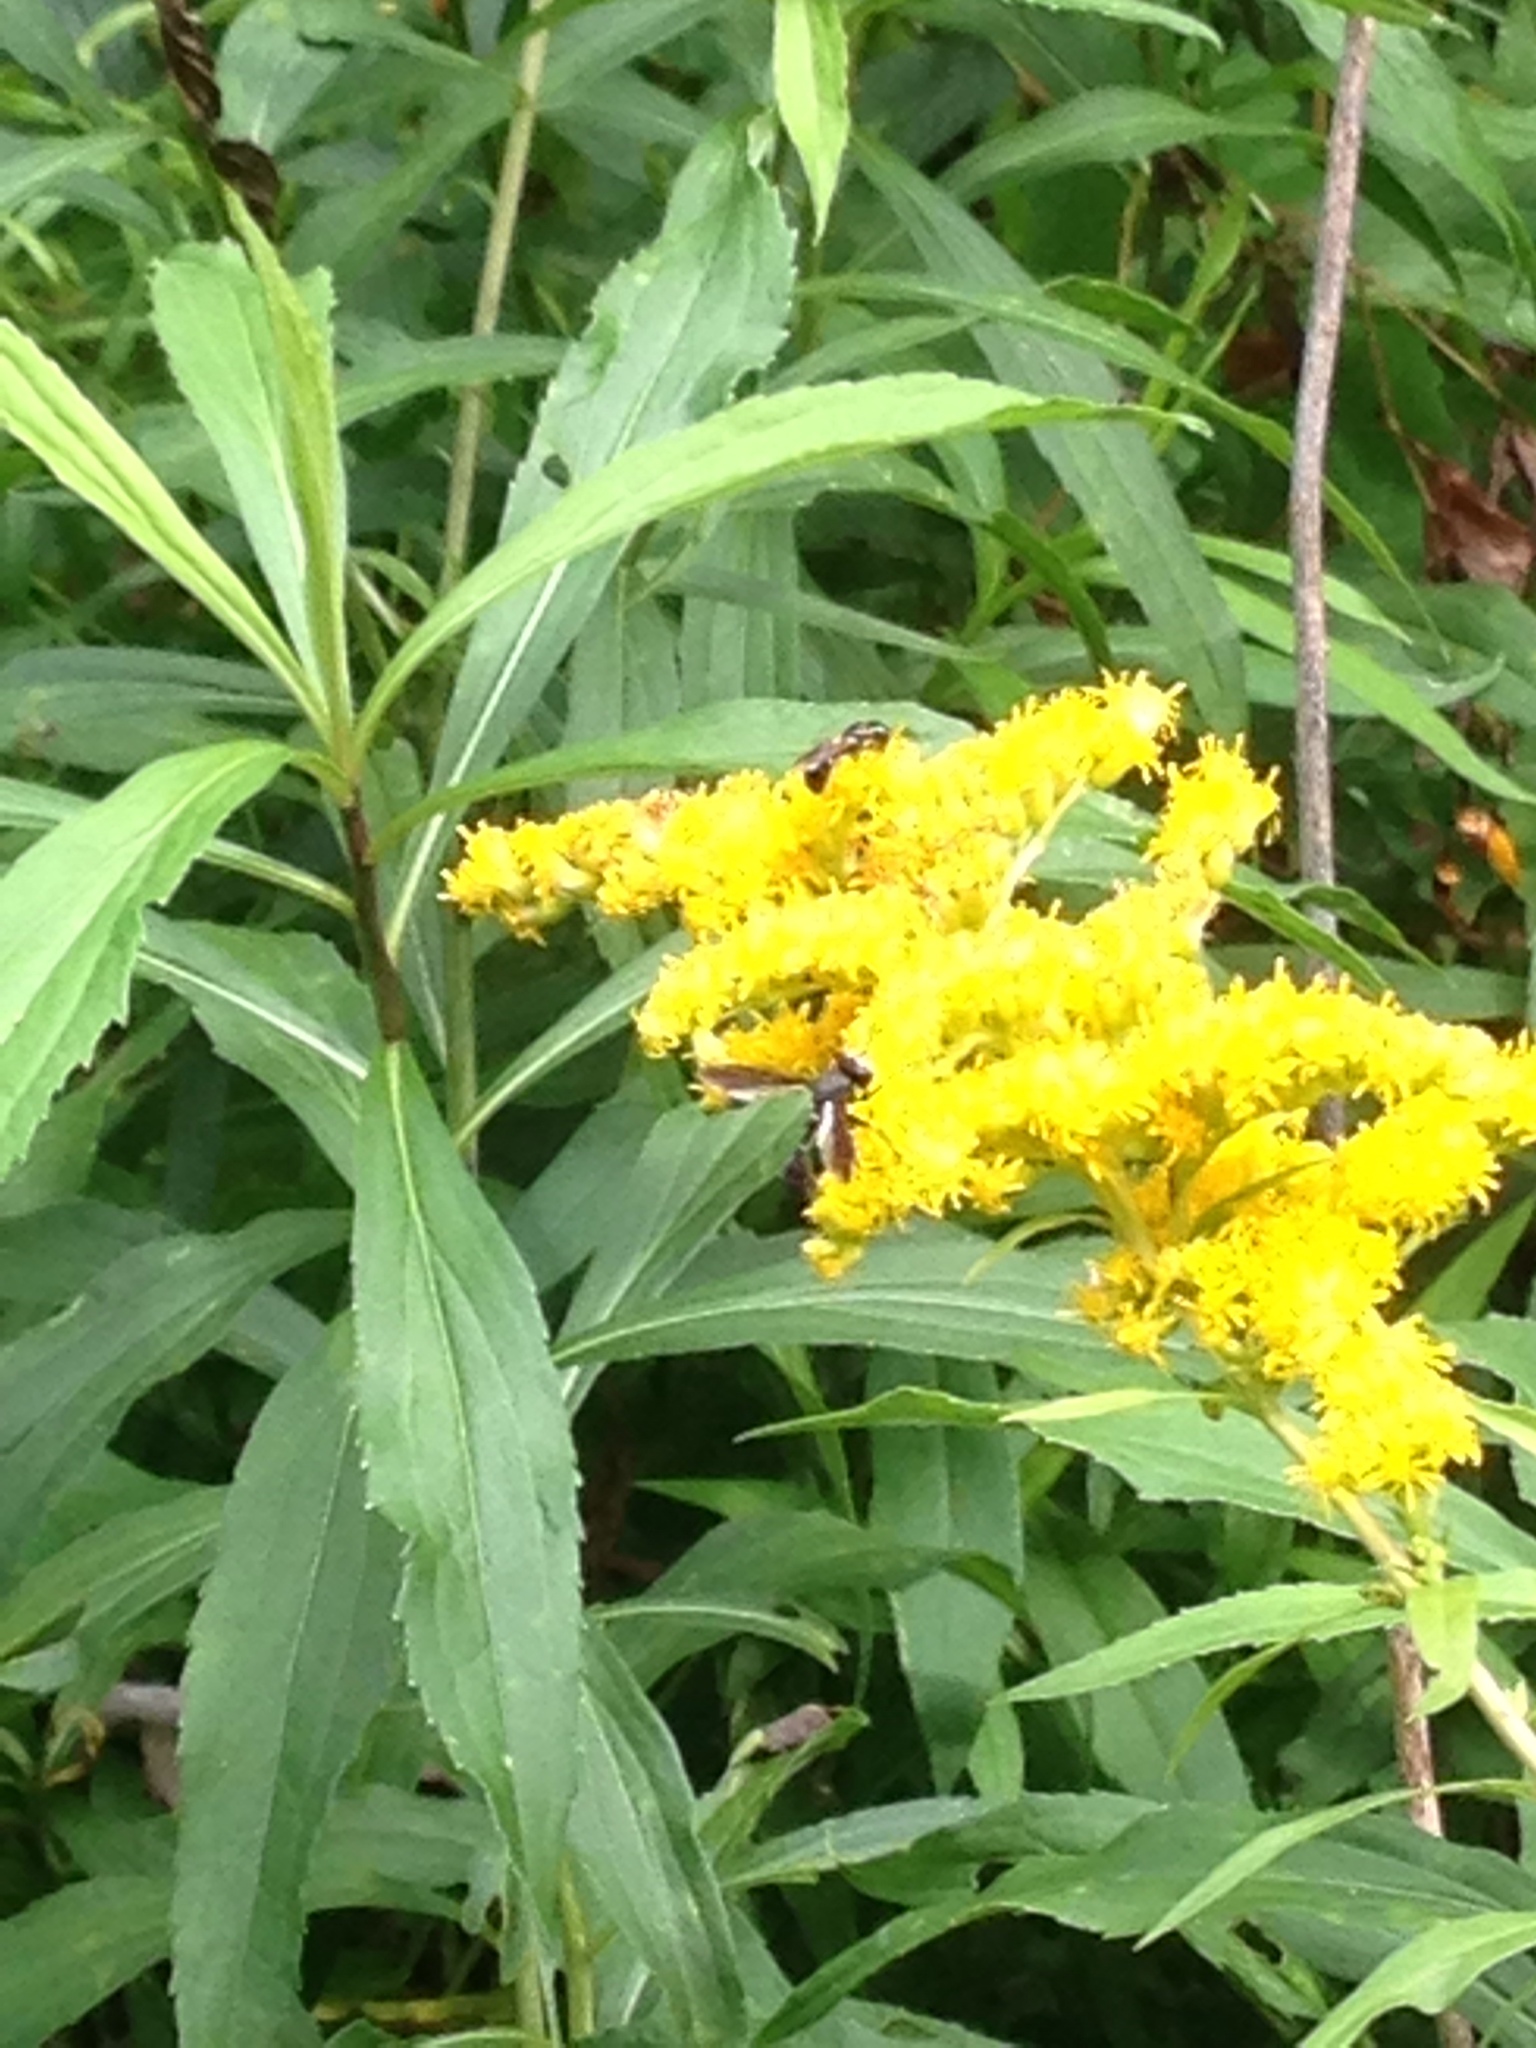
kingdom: Animalia
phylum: Arthropoda
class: Insecta
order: Diptera
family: Conopidae
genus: Physocephala
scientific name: Physocephala tibialis
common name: Common eastern physocephala
